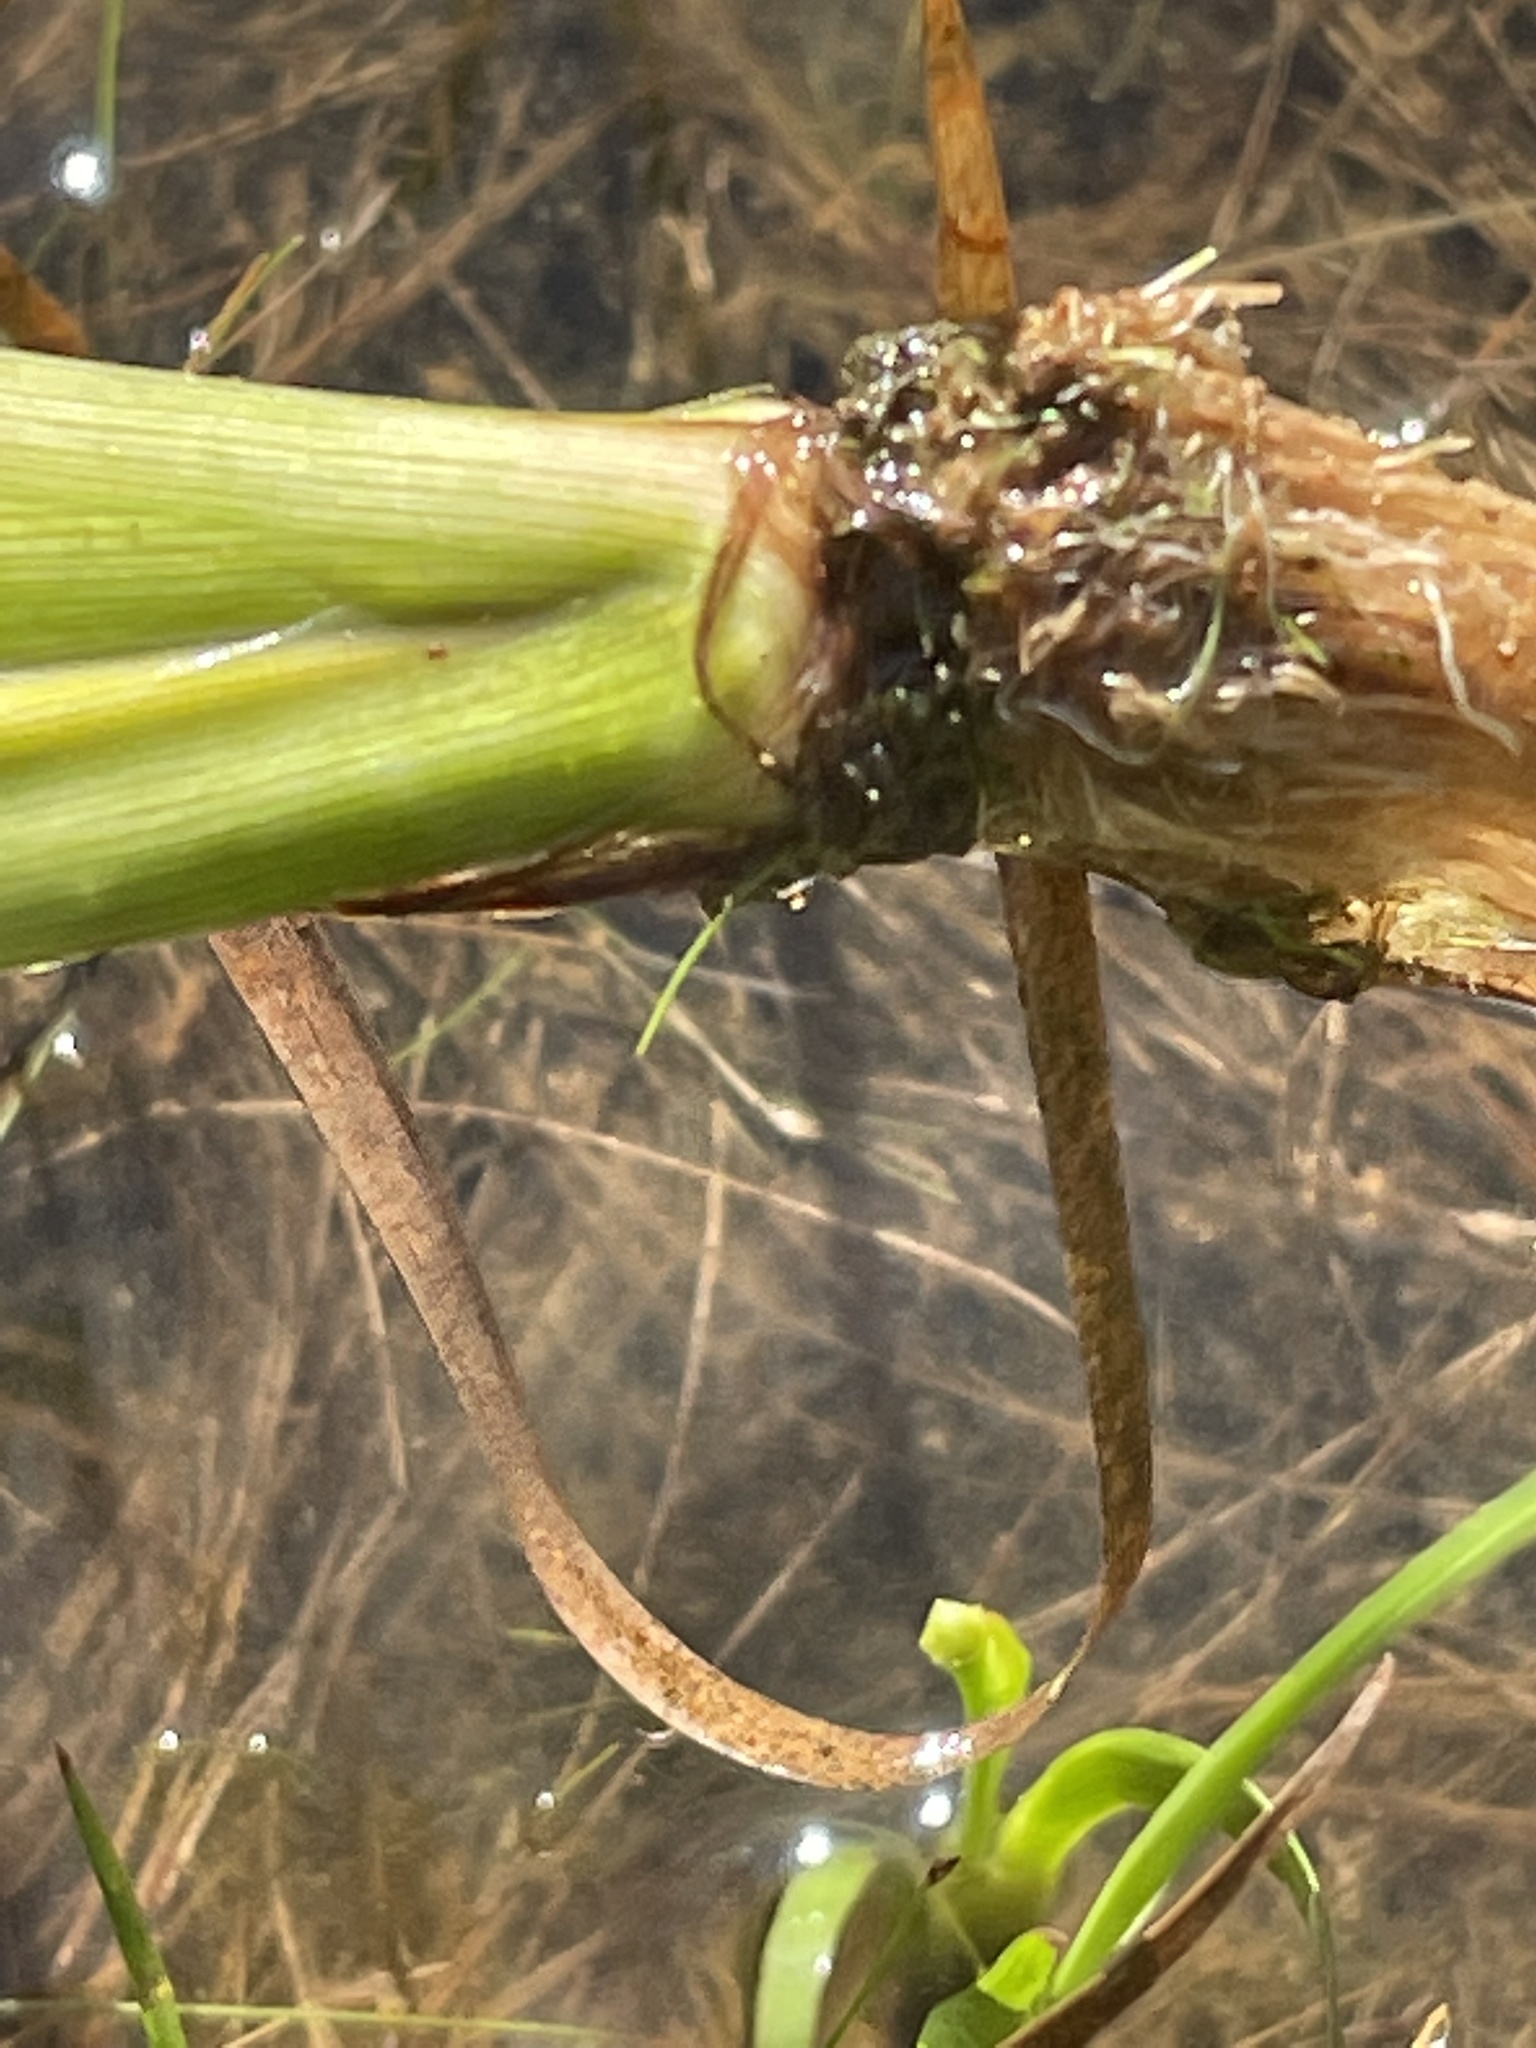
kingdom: Plantae
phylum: Tracheophyta
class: Liliopsida
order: Poales
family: Xyridaceae
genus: Xyris
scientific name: Xyris difformis
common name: Bog yellow-eyed-grass
